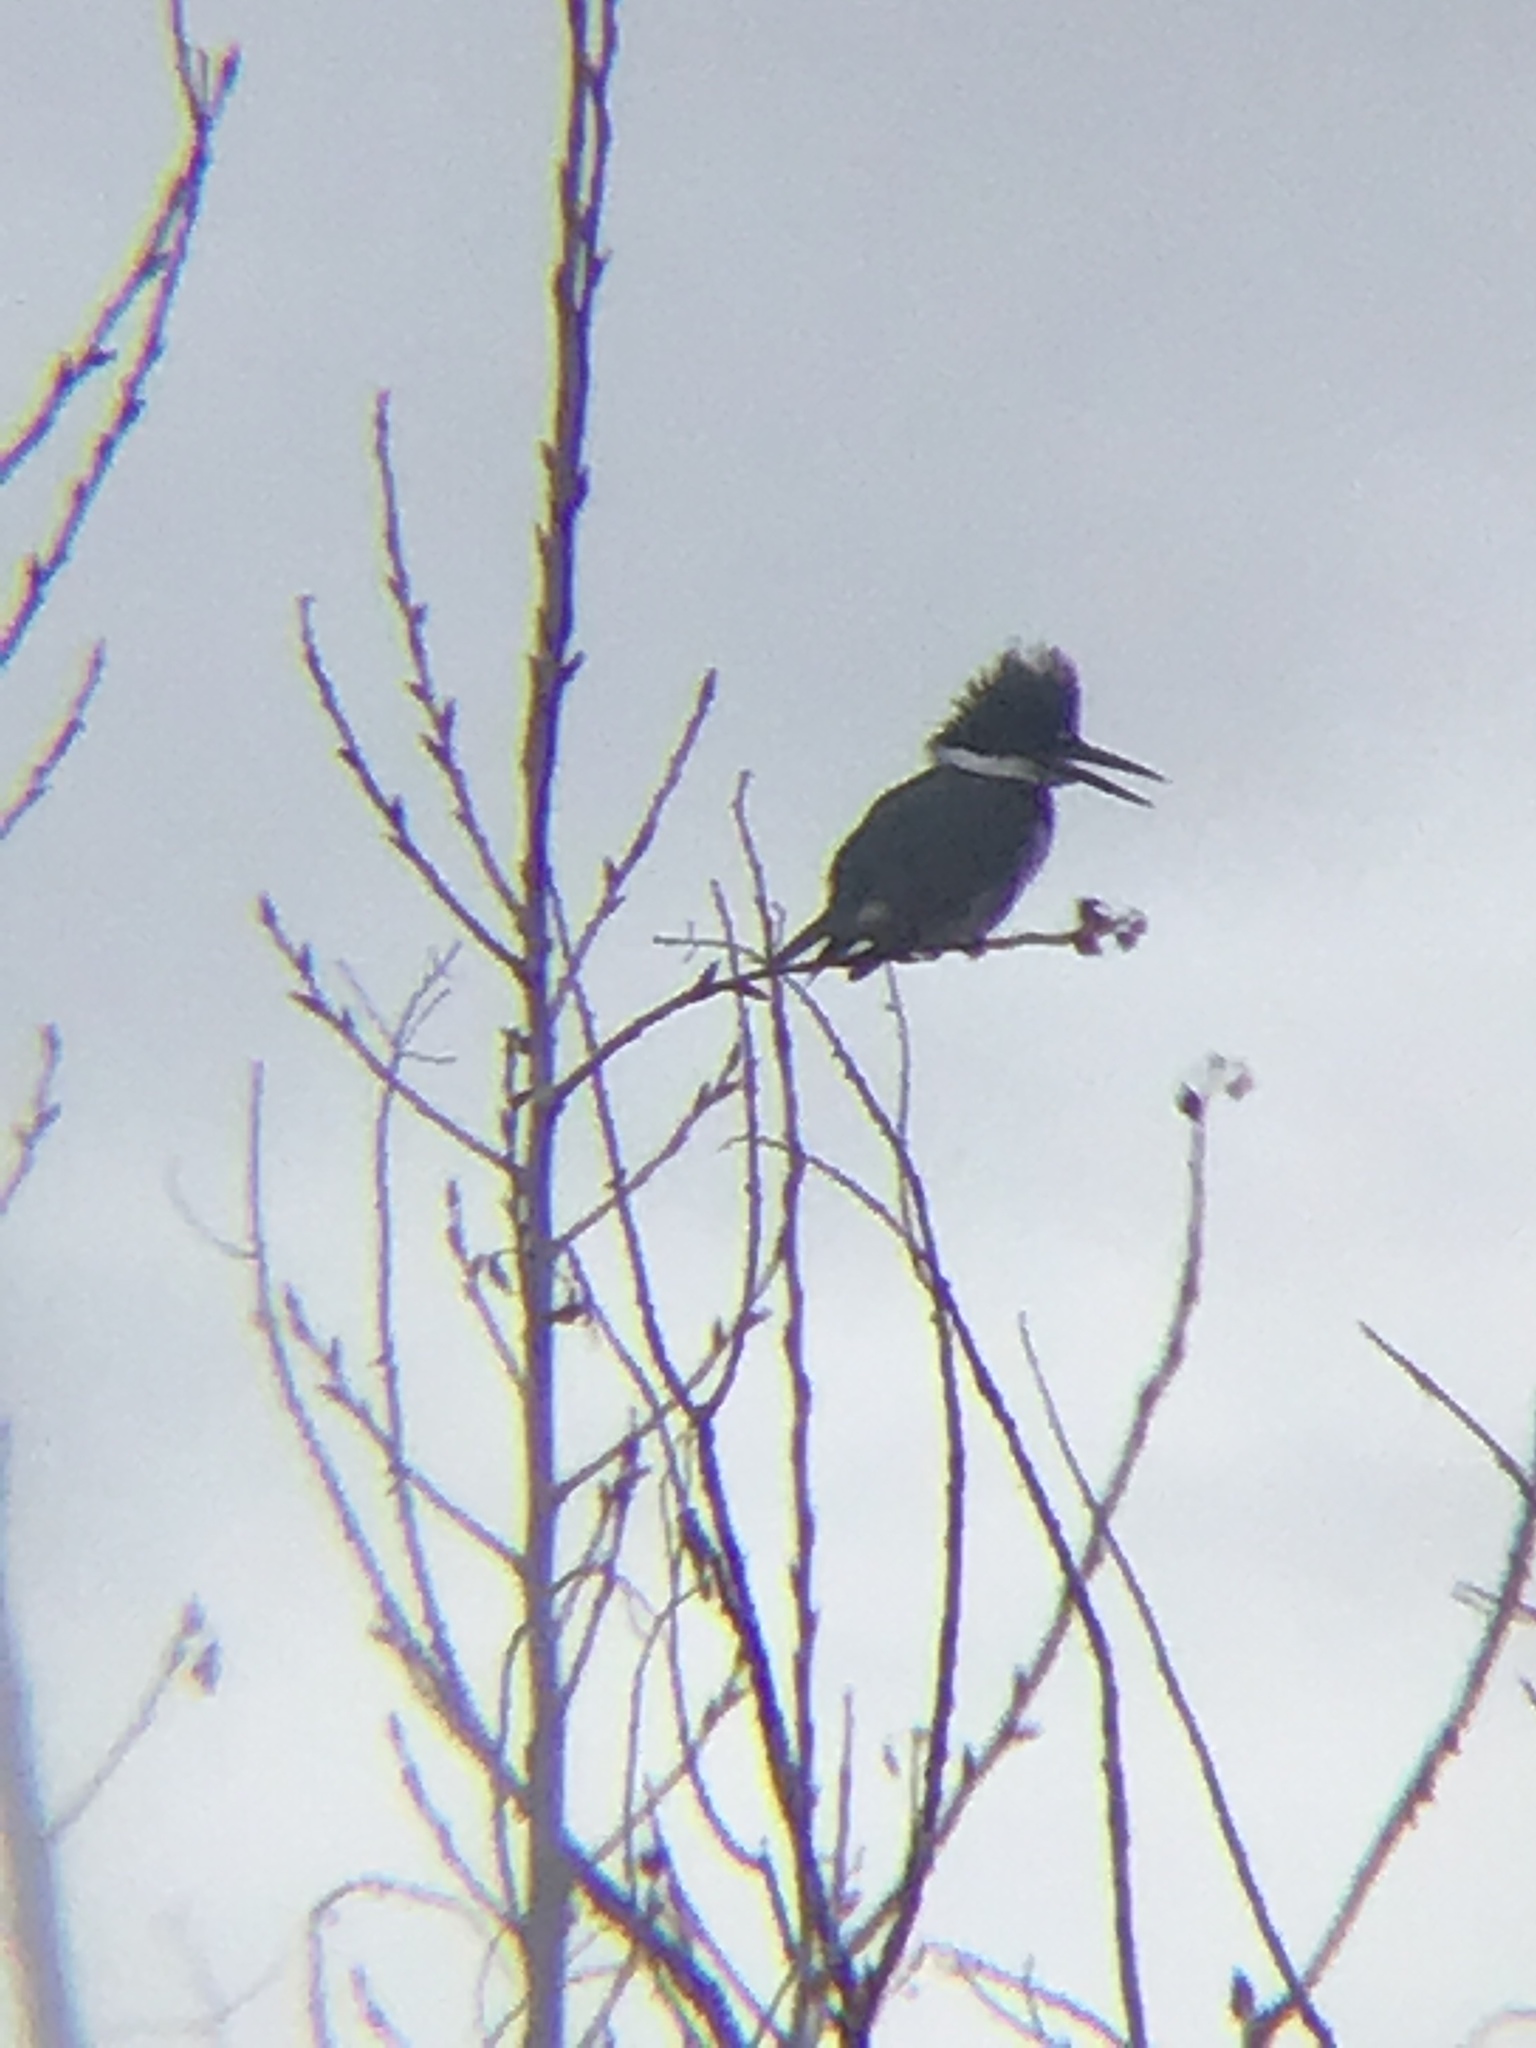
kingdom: Animalia
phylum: Chordata
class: Aves
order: Coraciiformes
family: Alcedinidae
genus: Megaceryle
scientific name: Megaceryle alcyon
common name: Belted kingfisher
